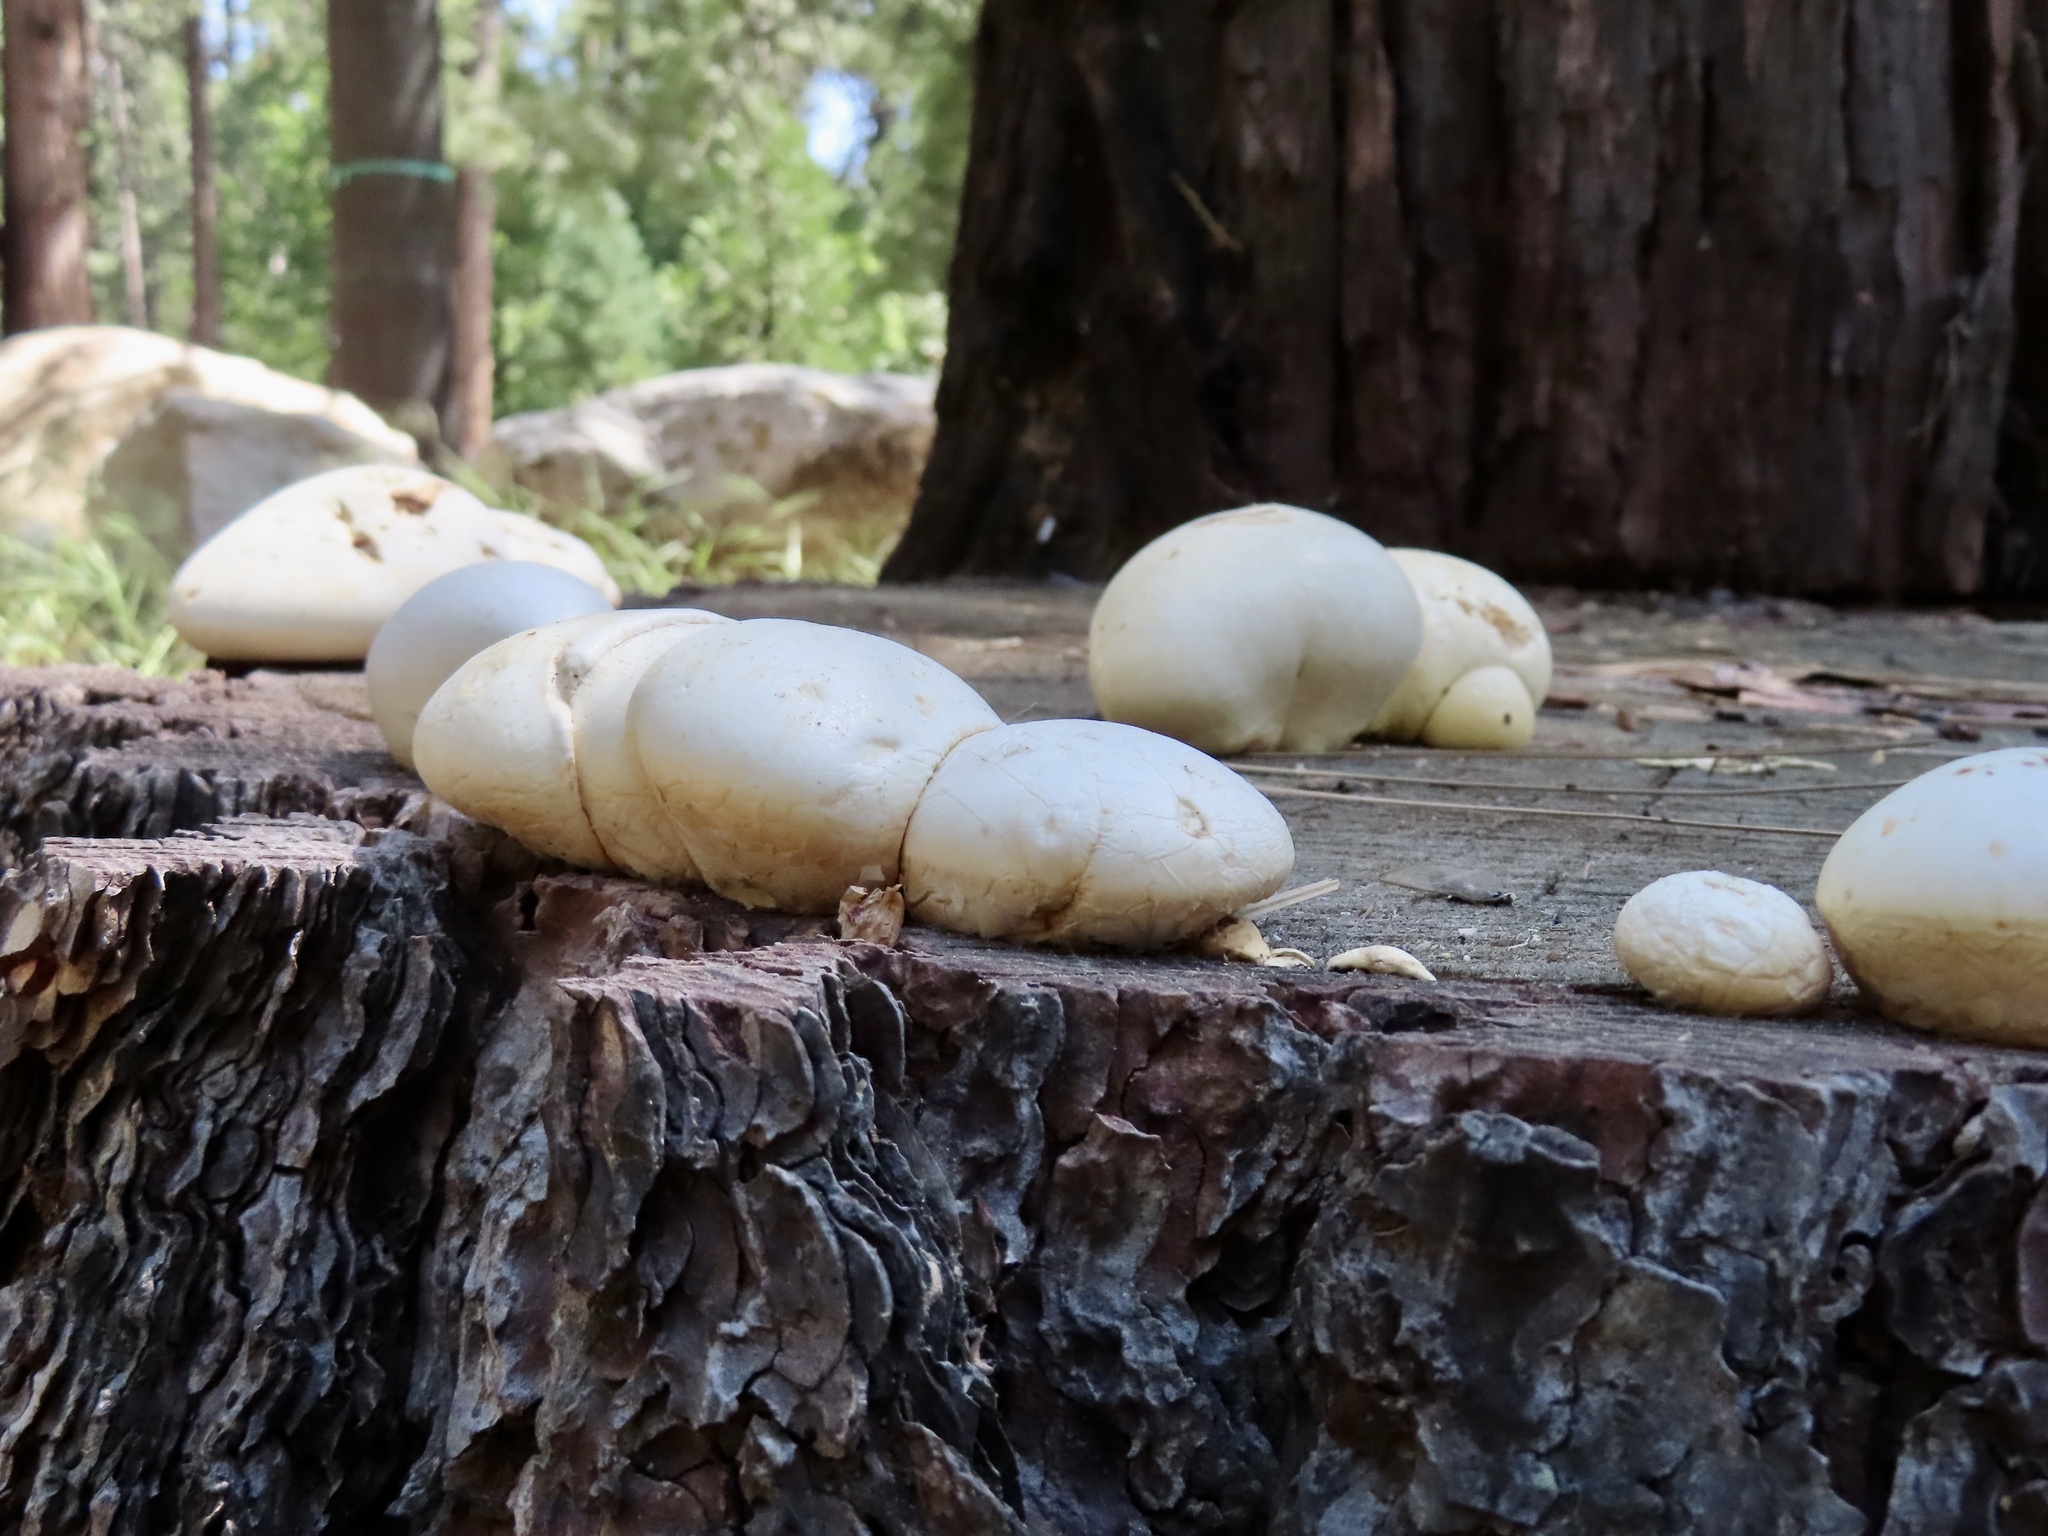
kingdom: Fungi
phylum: Basidiomycota
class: Agaricomycetes
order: Polyporales
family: Polyporaceae
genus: Cryptoporus
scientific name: Cryptoporus volvatus
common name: Veiled polypore
